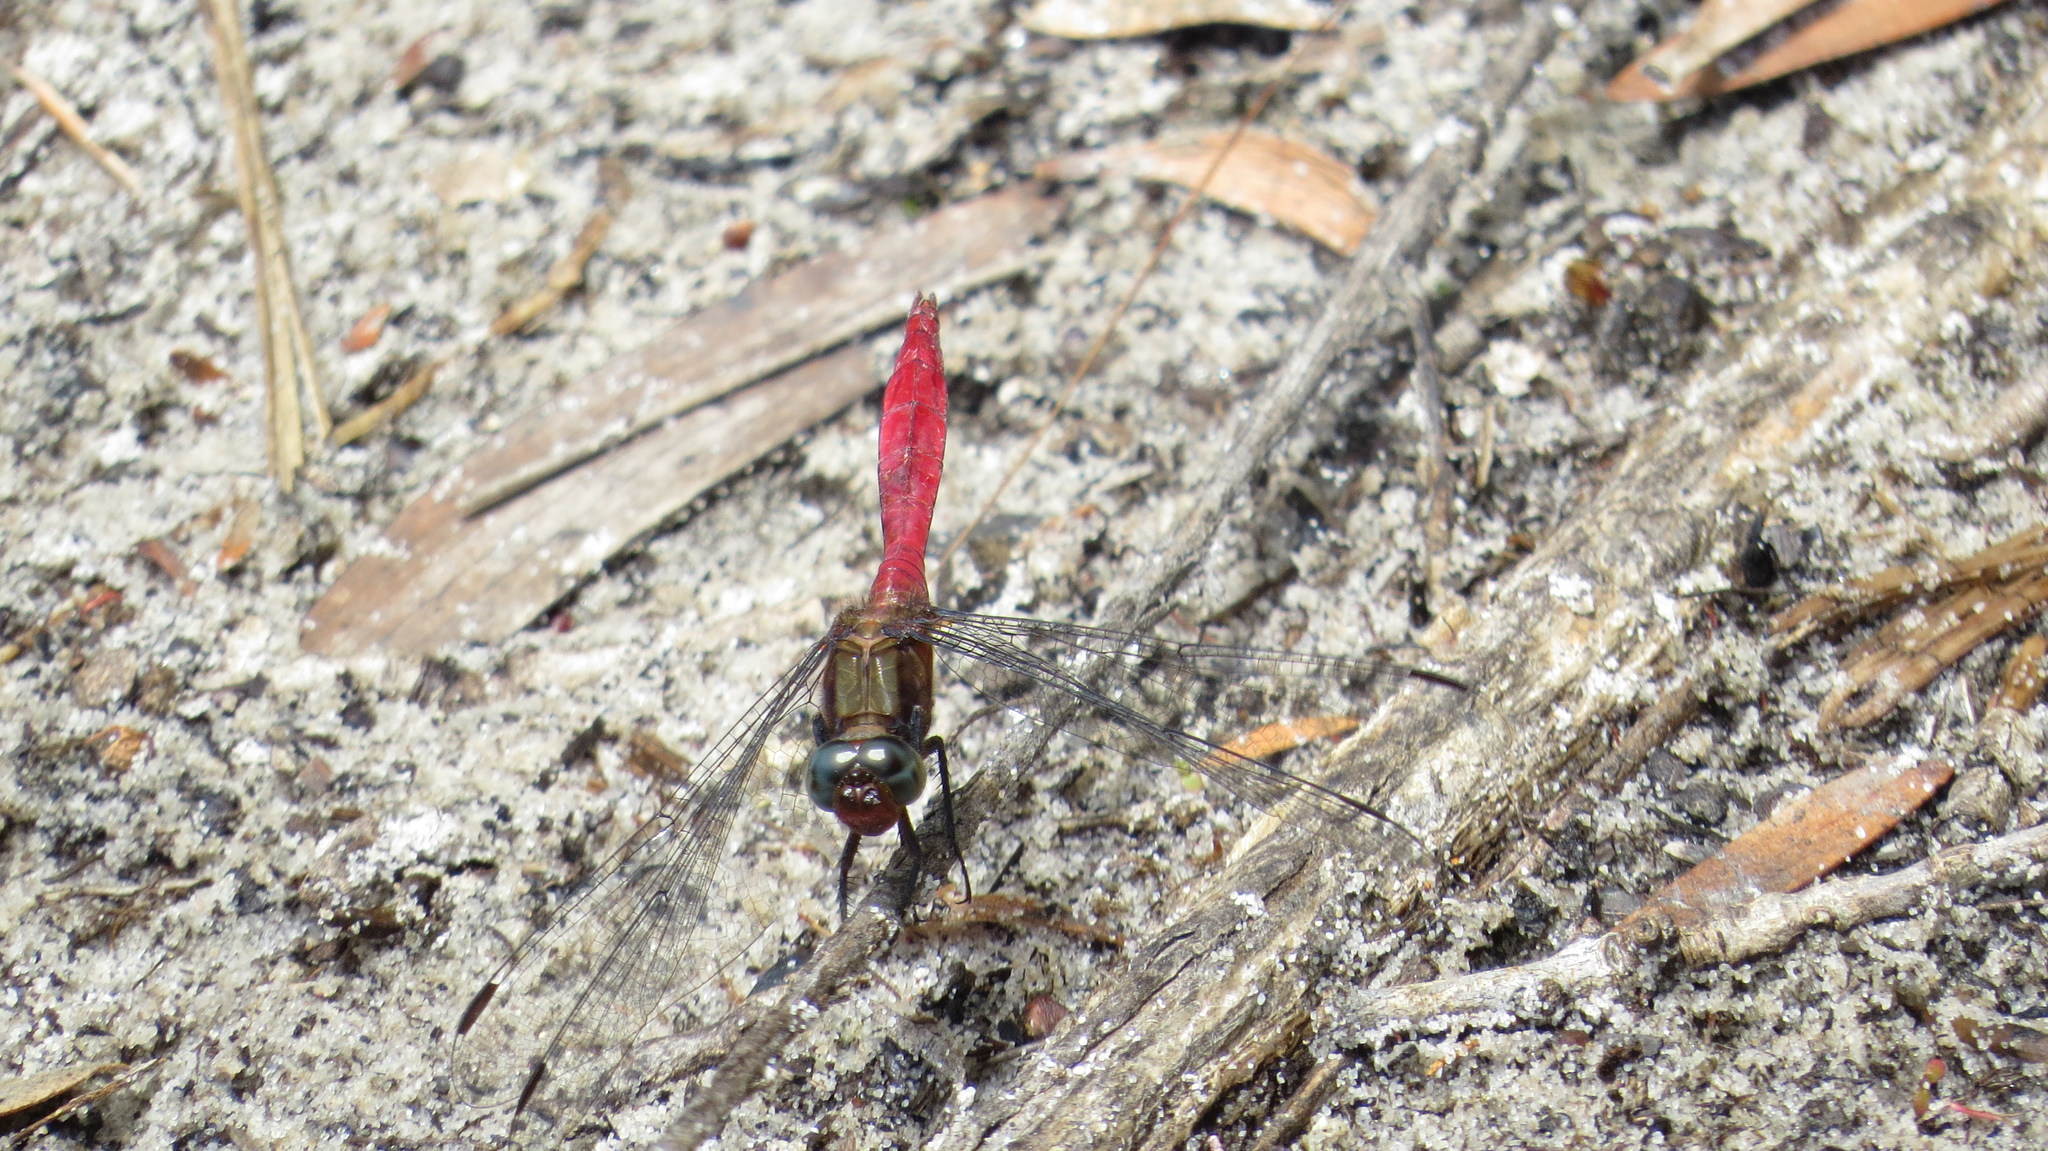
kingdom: Animalia
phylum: Arthropoda
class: Insecta
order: Odonata
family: Libellulidae
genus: Orthetrum
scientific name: Orthetrum villosovittatum
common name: Firery skimmer
